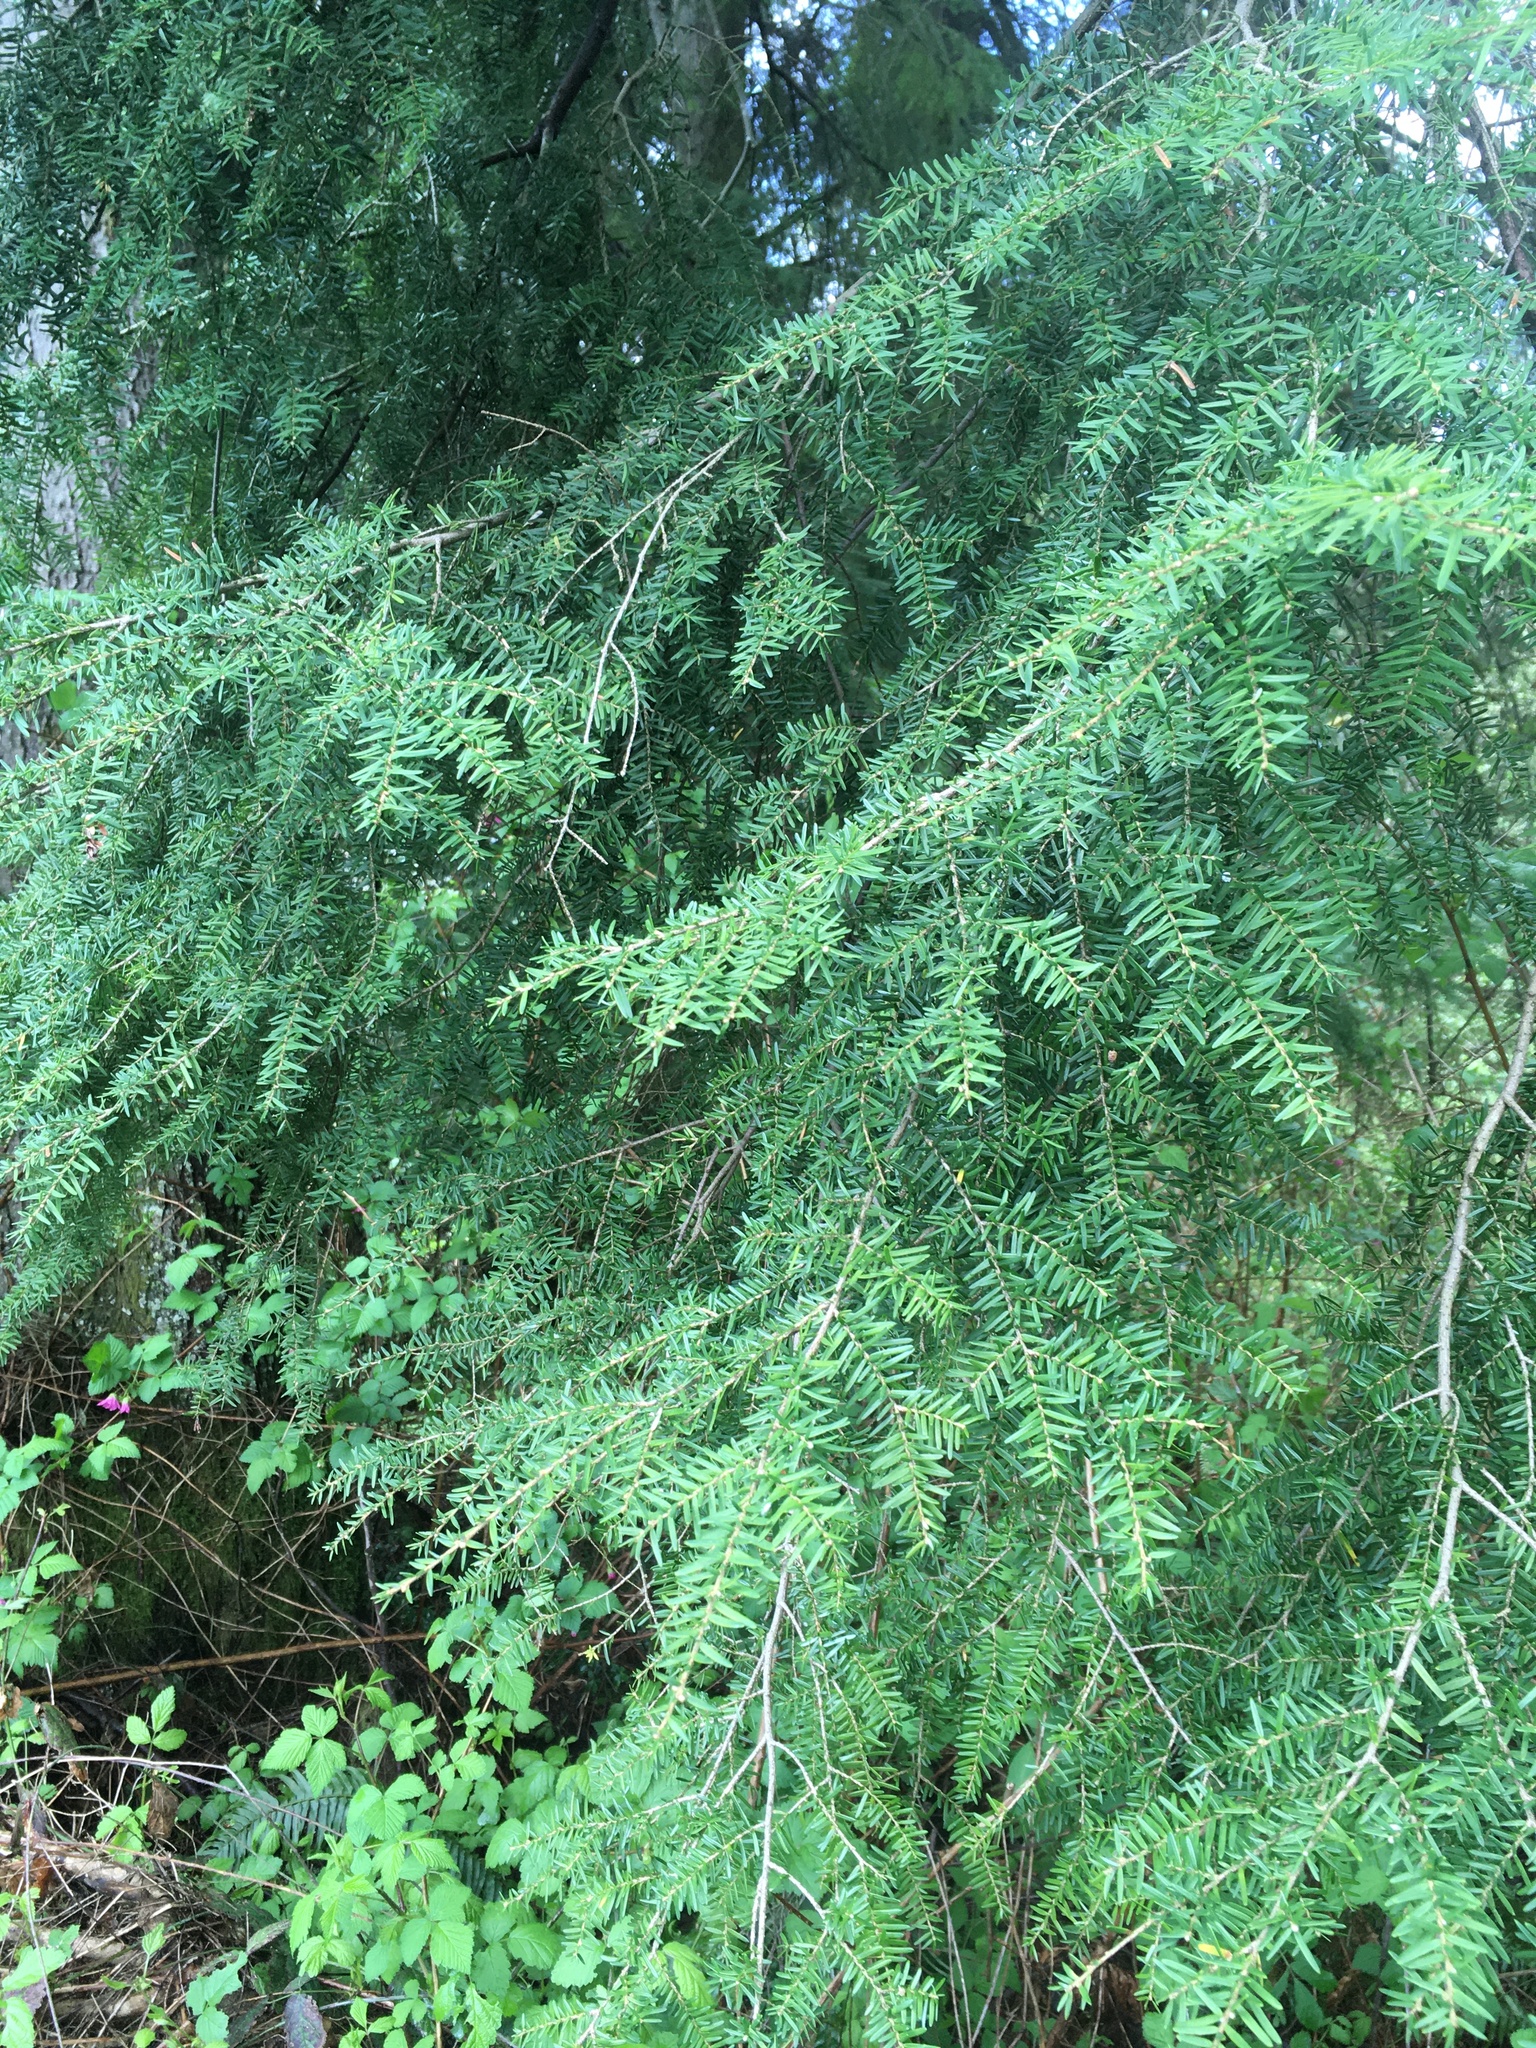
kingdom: Plantae
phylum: Tracheophyta
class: Pinopsida
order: Pinales
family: Pinaceae
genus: Tsuga
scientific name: Tsuga heterophylla
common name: Western hemlock
